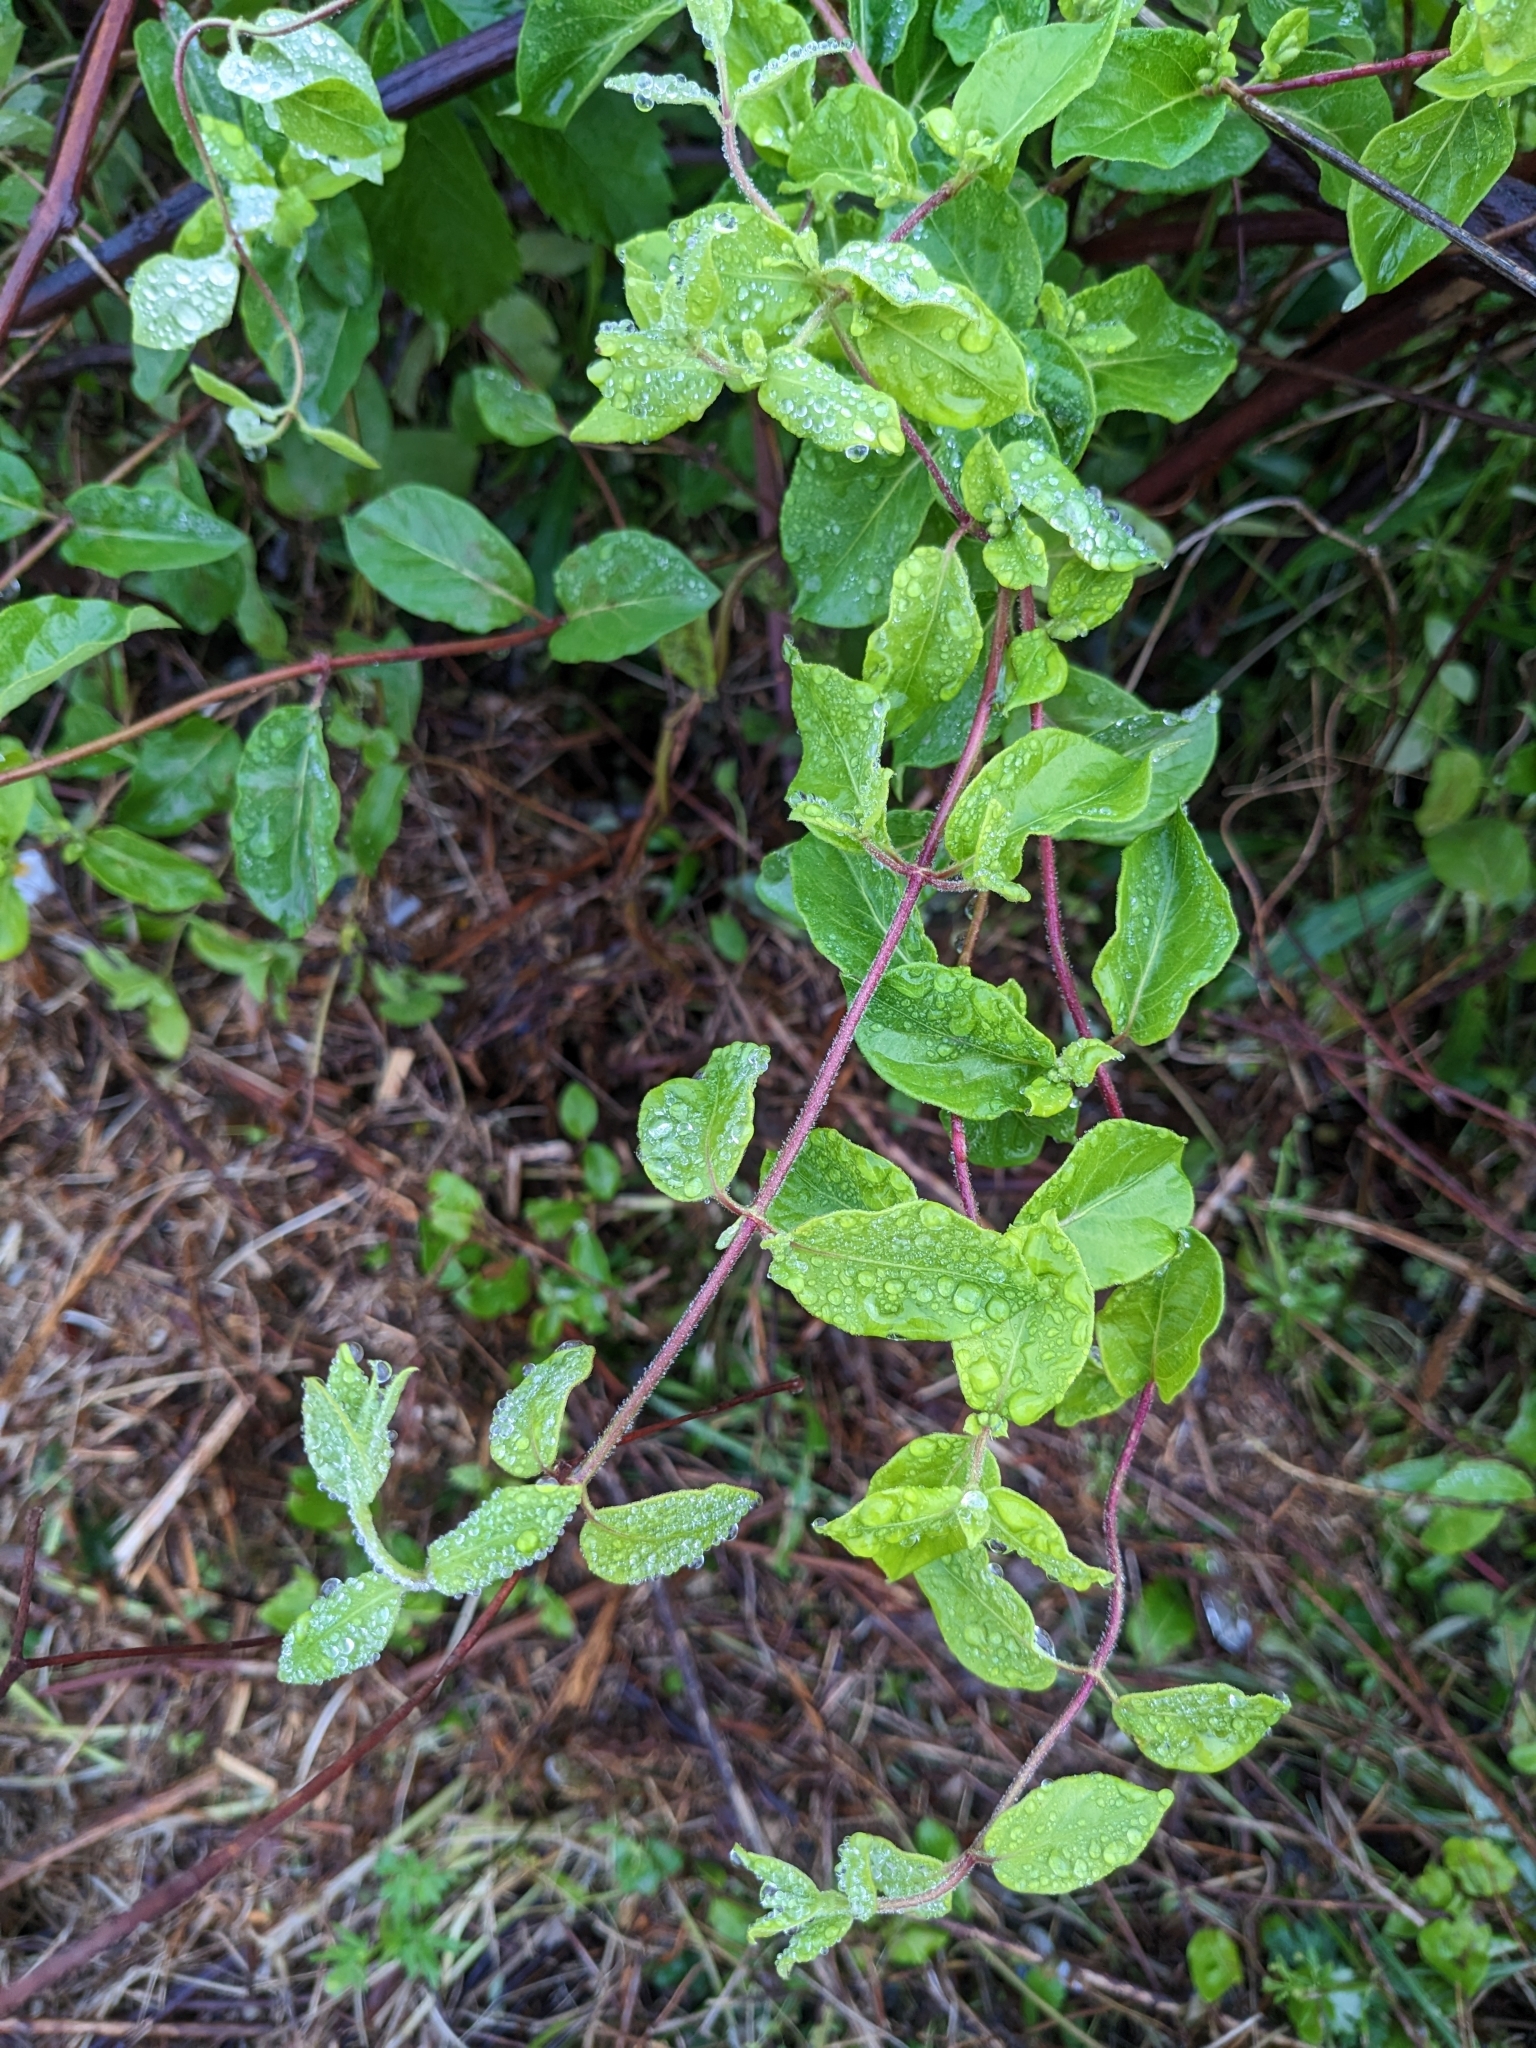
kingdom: Plantae
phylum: Tracheophyta
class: Magnoliopsida
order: Dipsacales
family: Caprifoliaceae
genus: Lonicera
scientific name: Lonicera japonica
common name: Japanese honeysuckle
